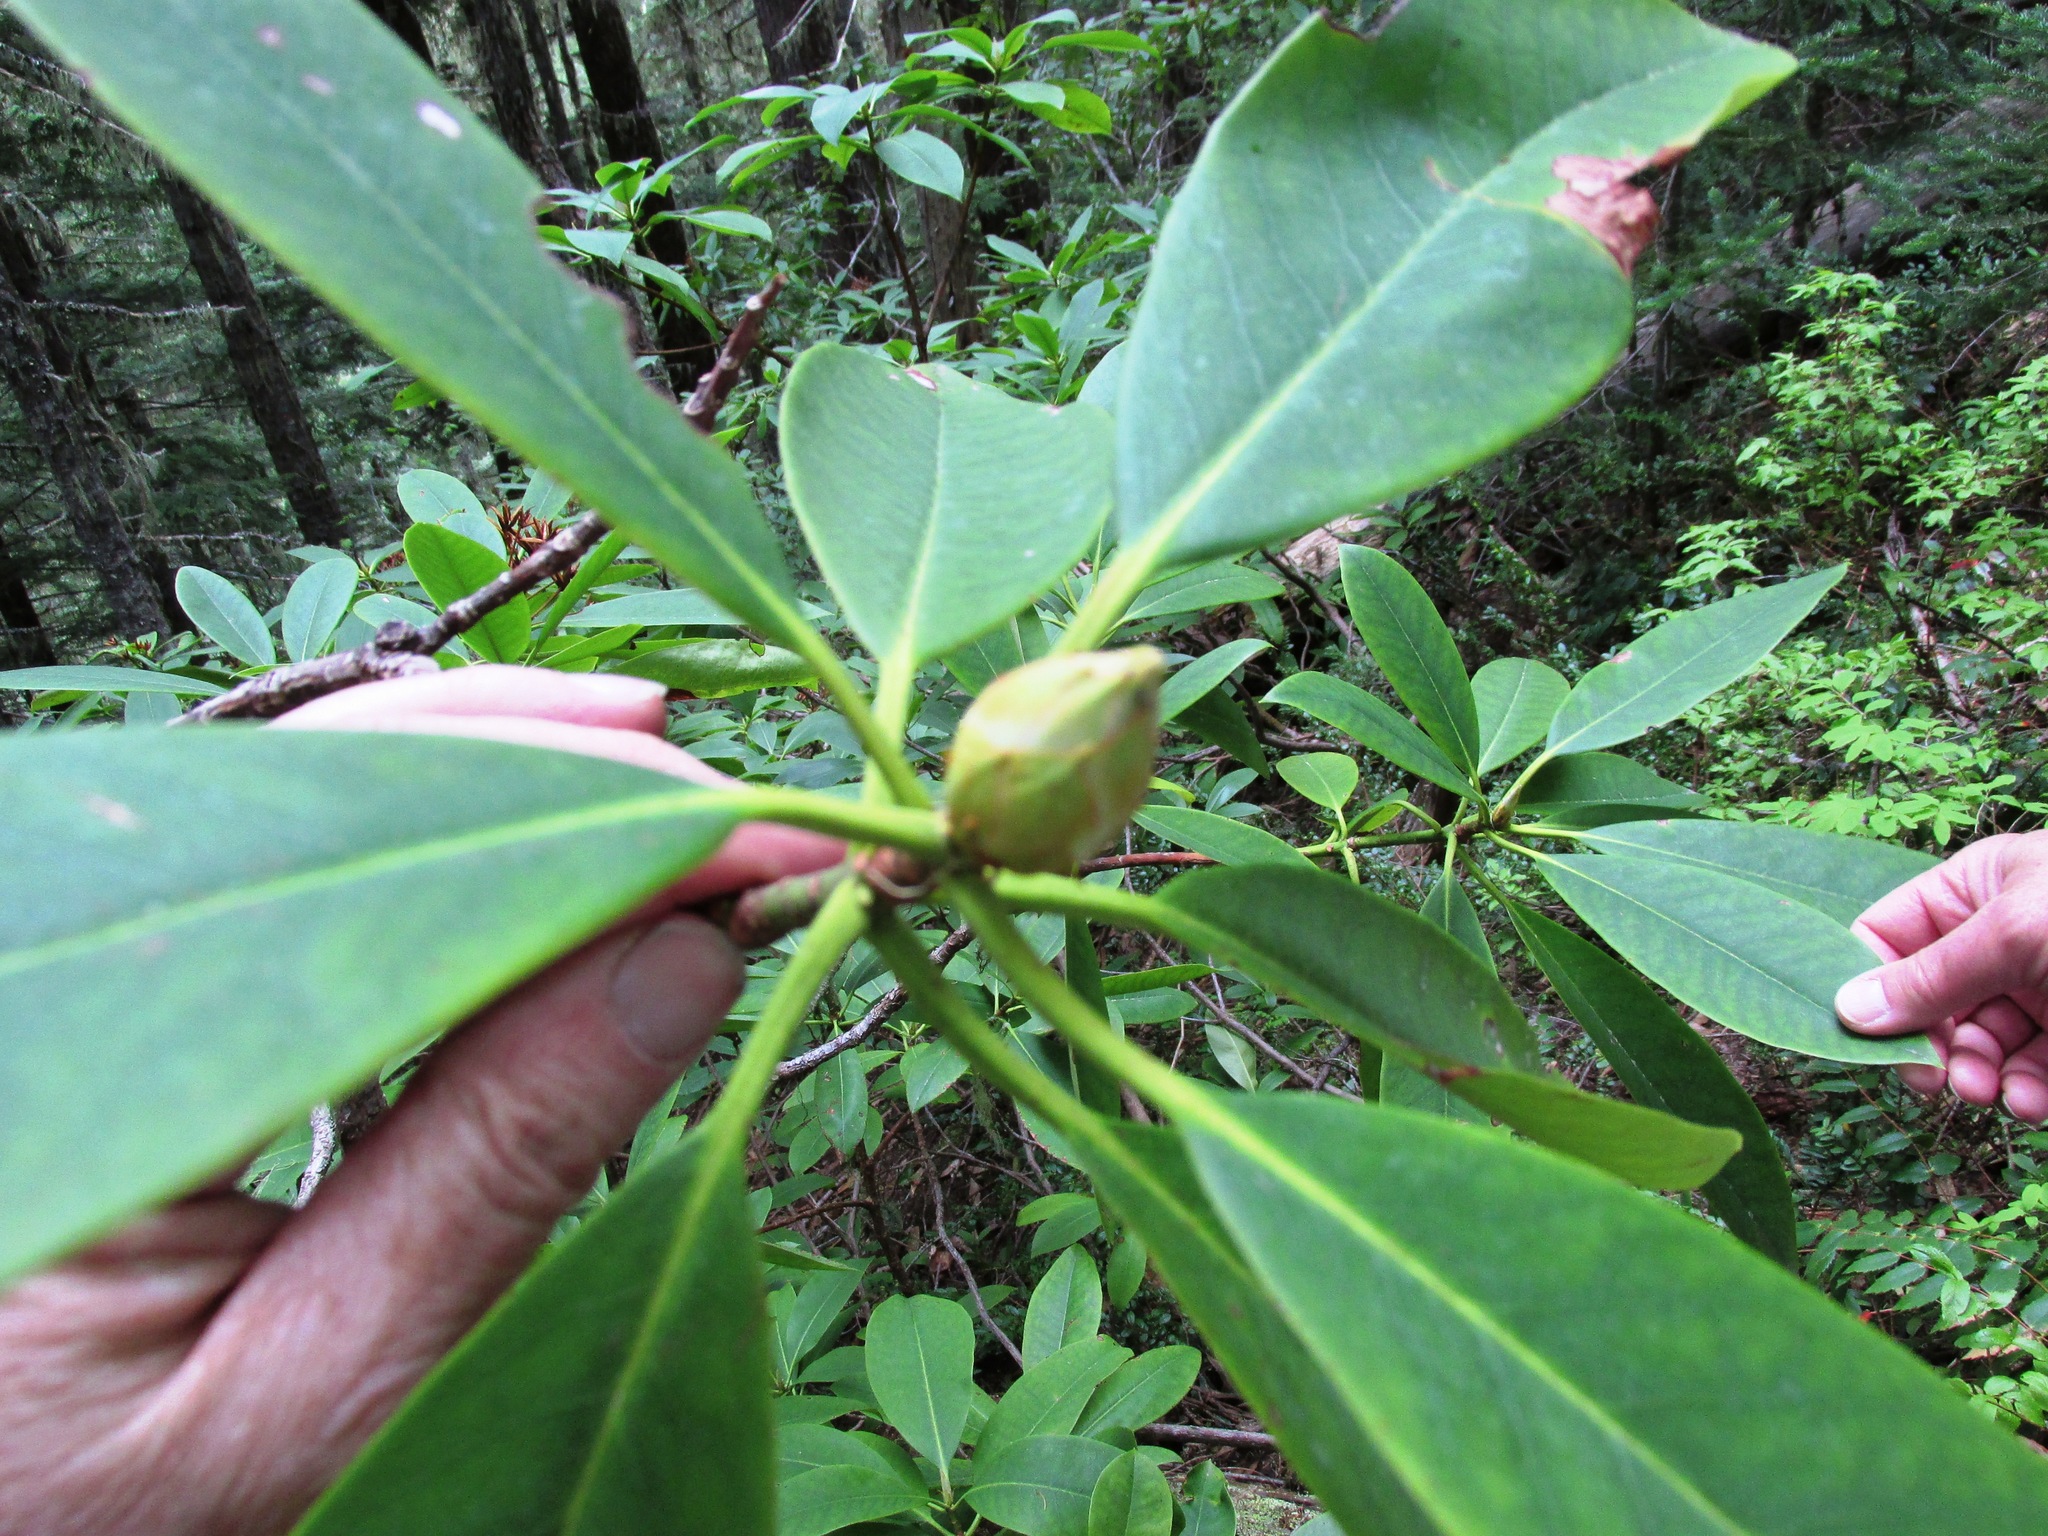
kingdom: Plantae
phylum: Tracheophyta
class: Magnoliopsida
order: Ericales
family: Ericaceae
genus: Rhododendron
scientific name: Rhododendron macrophyllum
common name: California rose bay
